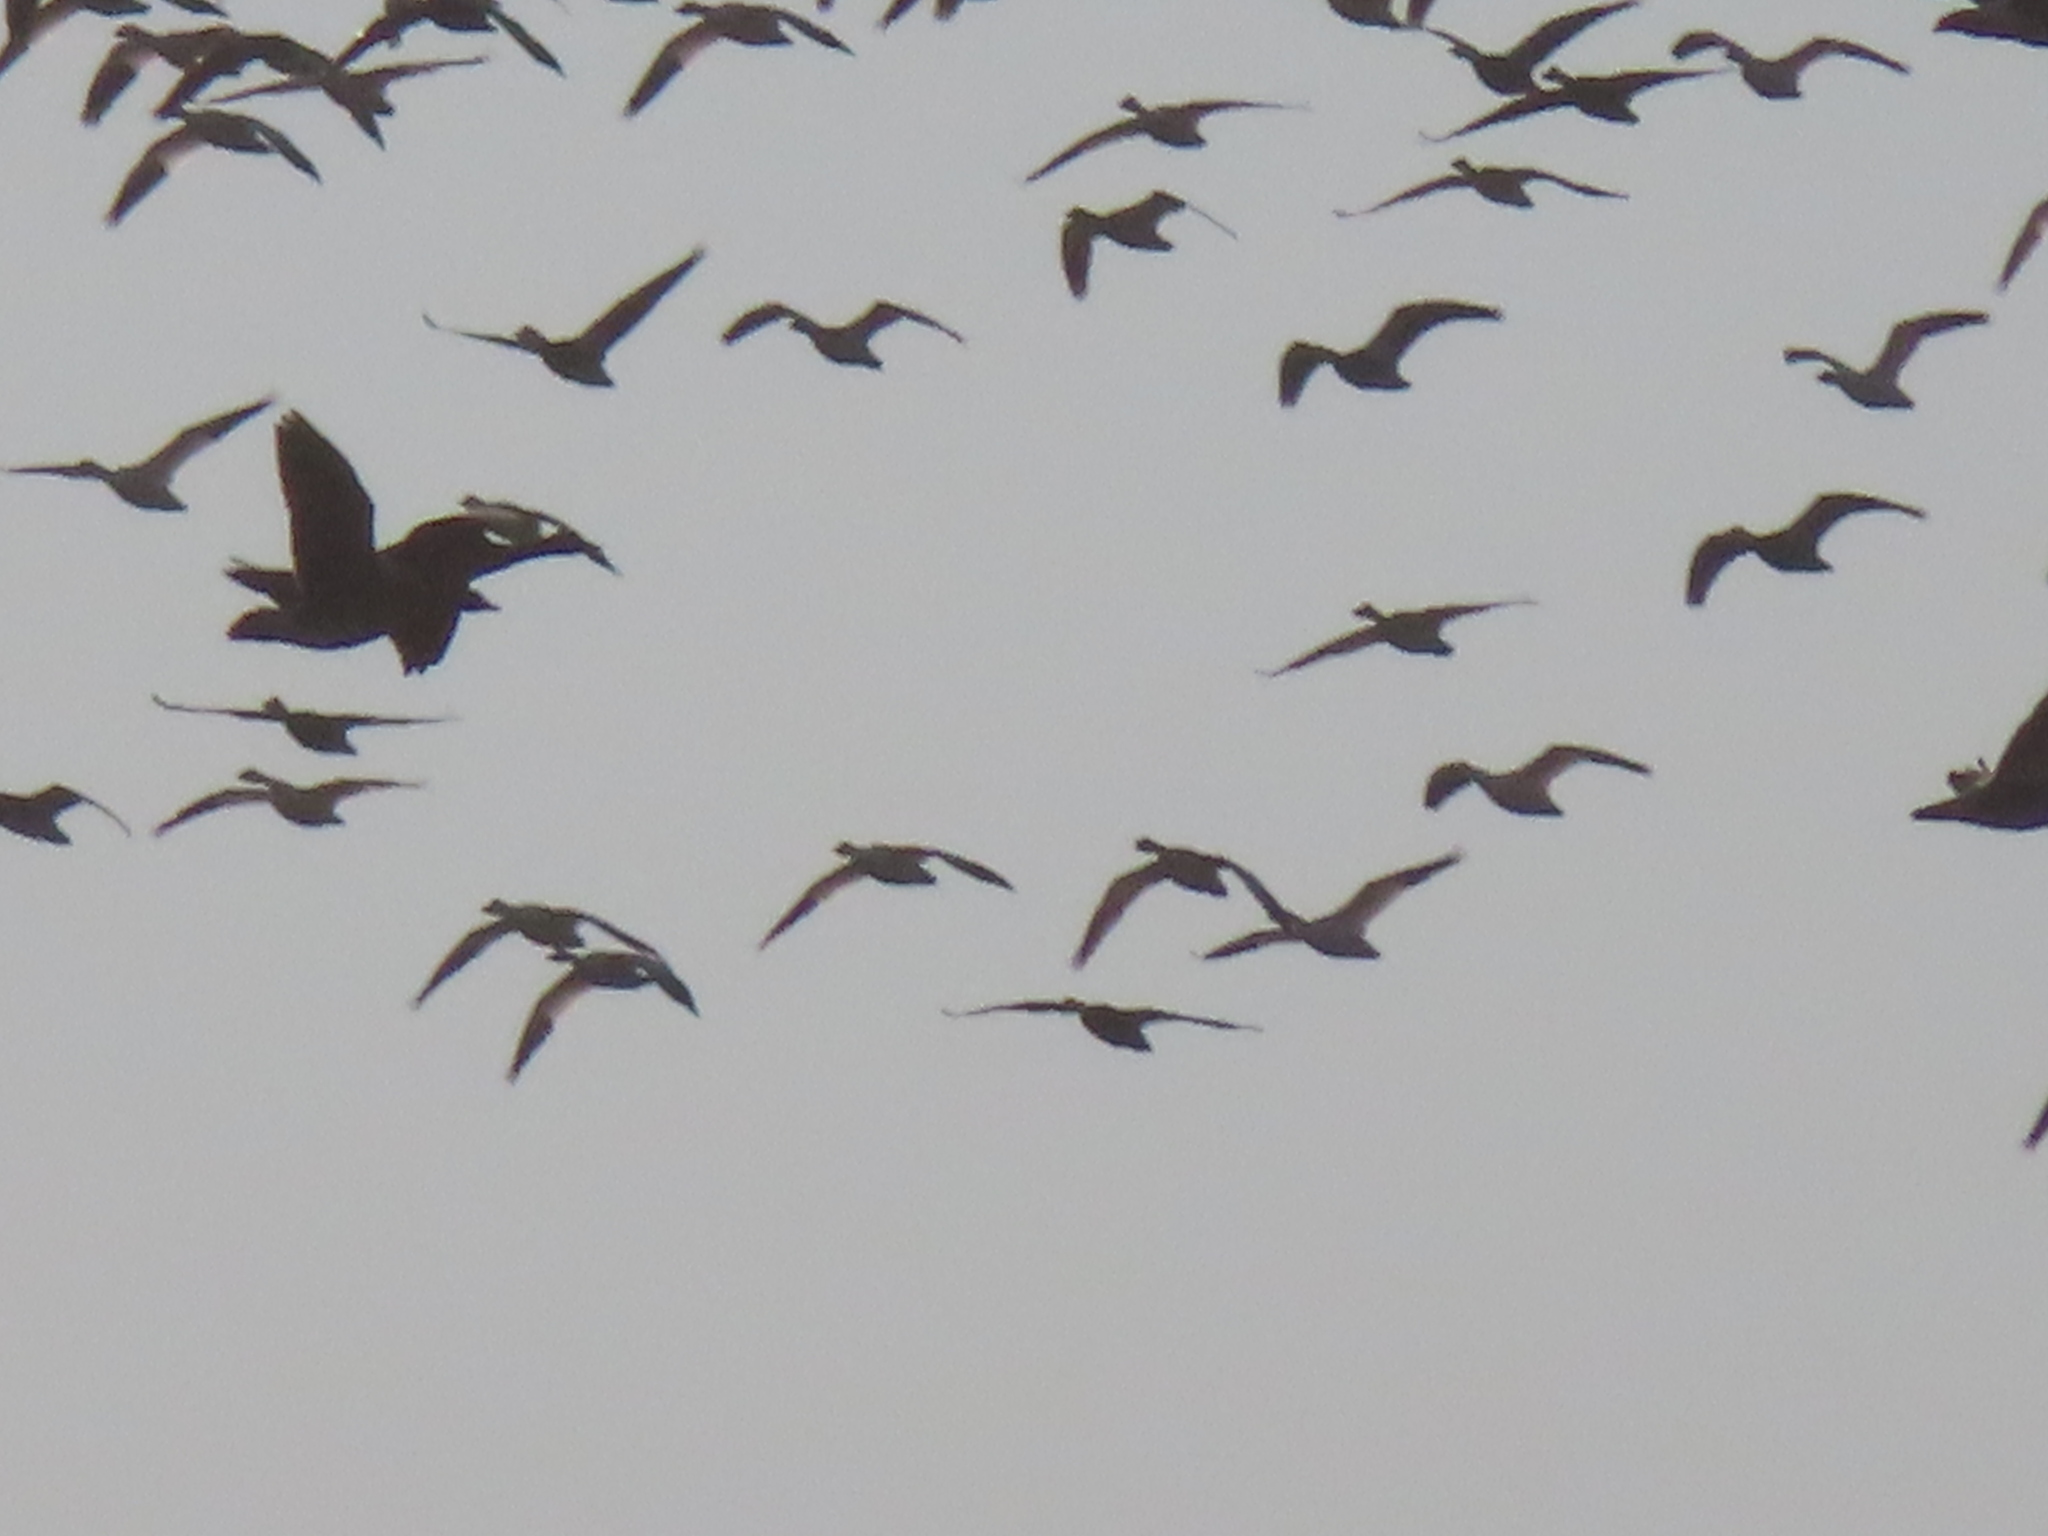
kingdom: Animalia
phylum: Chordata
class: Aves
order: Anseriformes
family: Anatidae
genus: Anser
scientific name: Anser caerulescens
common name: Snow goose
